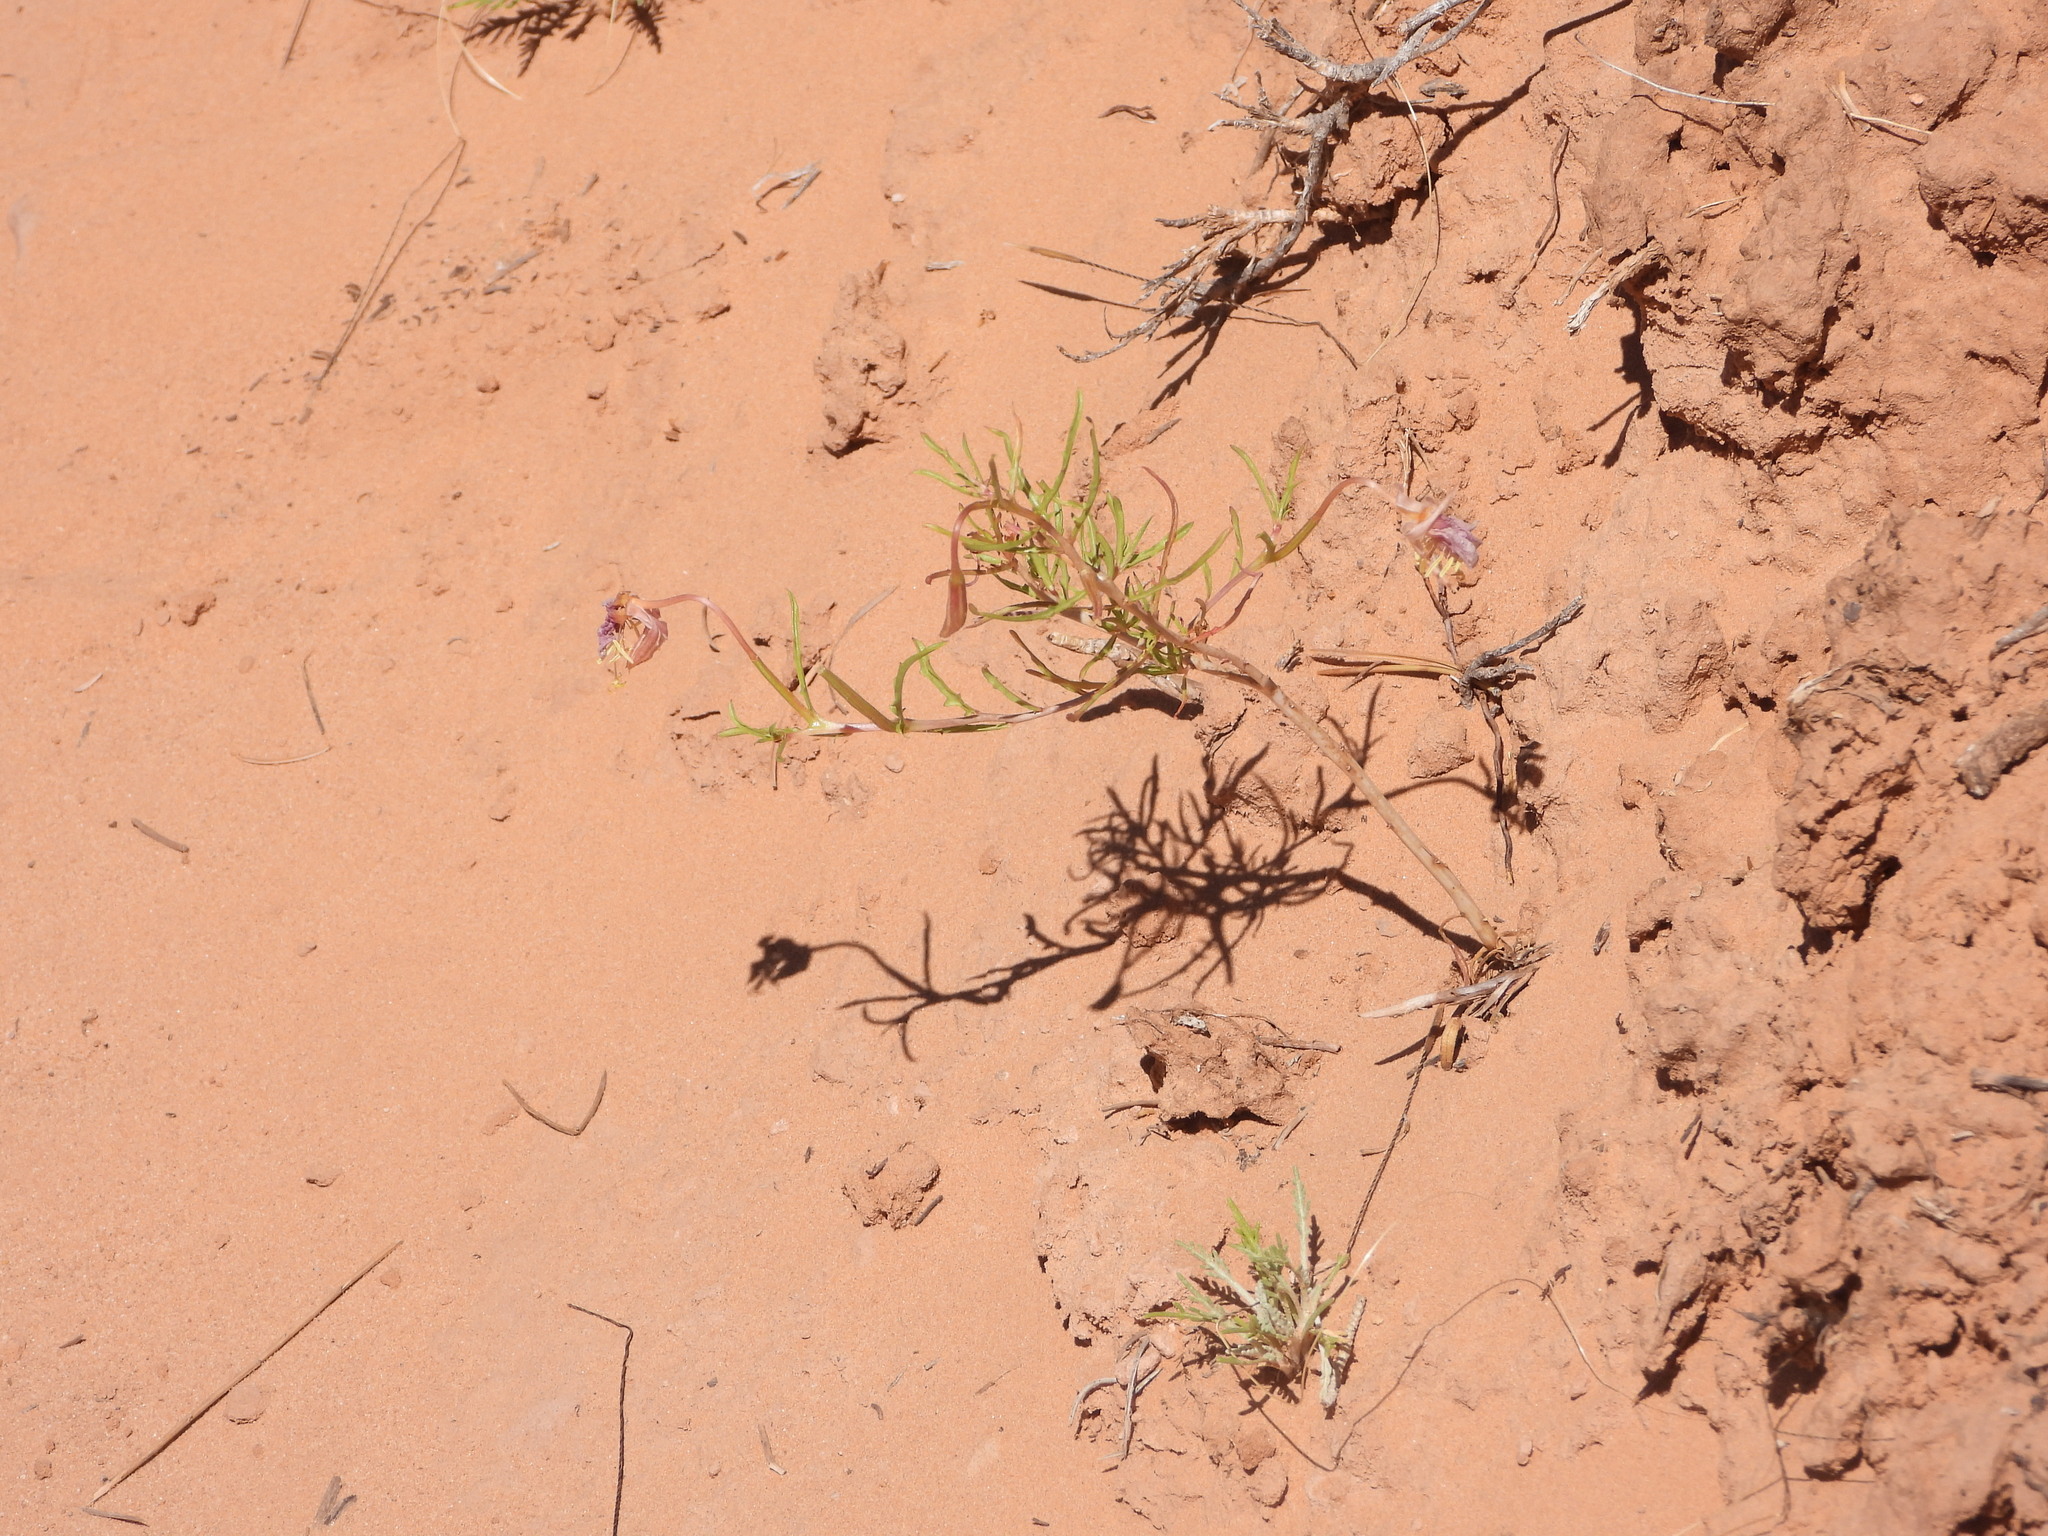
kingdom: Plantae
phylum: Tracheophyta
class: Magnoliopsida
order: Myrtales
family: Onagraceae
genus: Oenothera
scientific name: Oenothera pallida
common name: Pale evening-primrose
